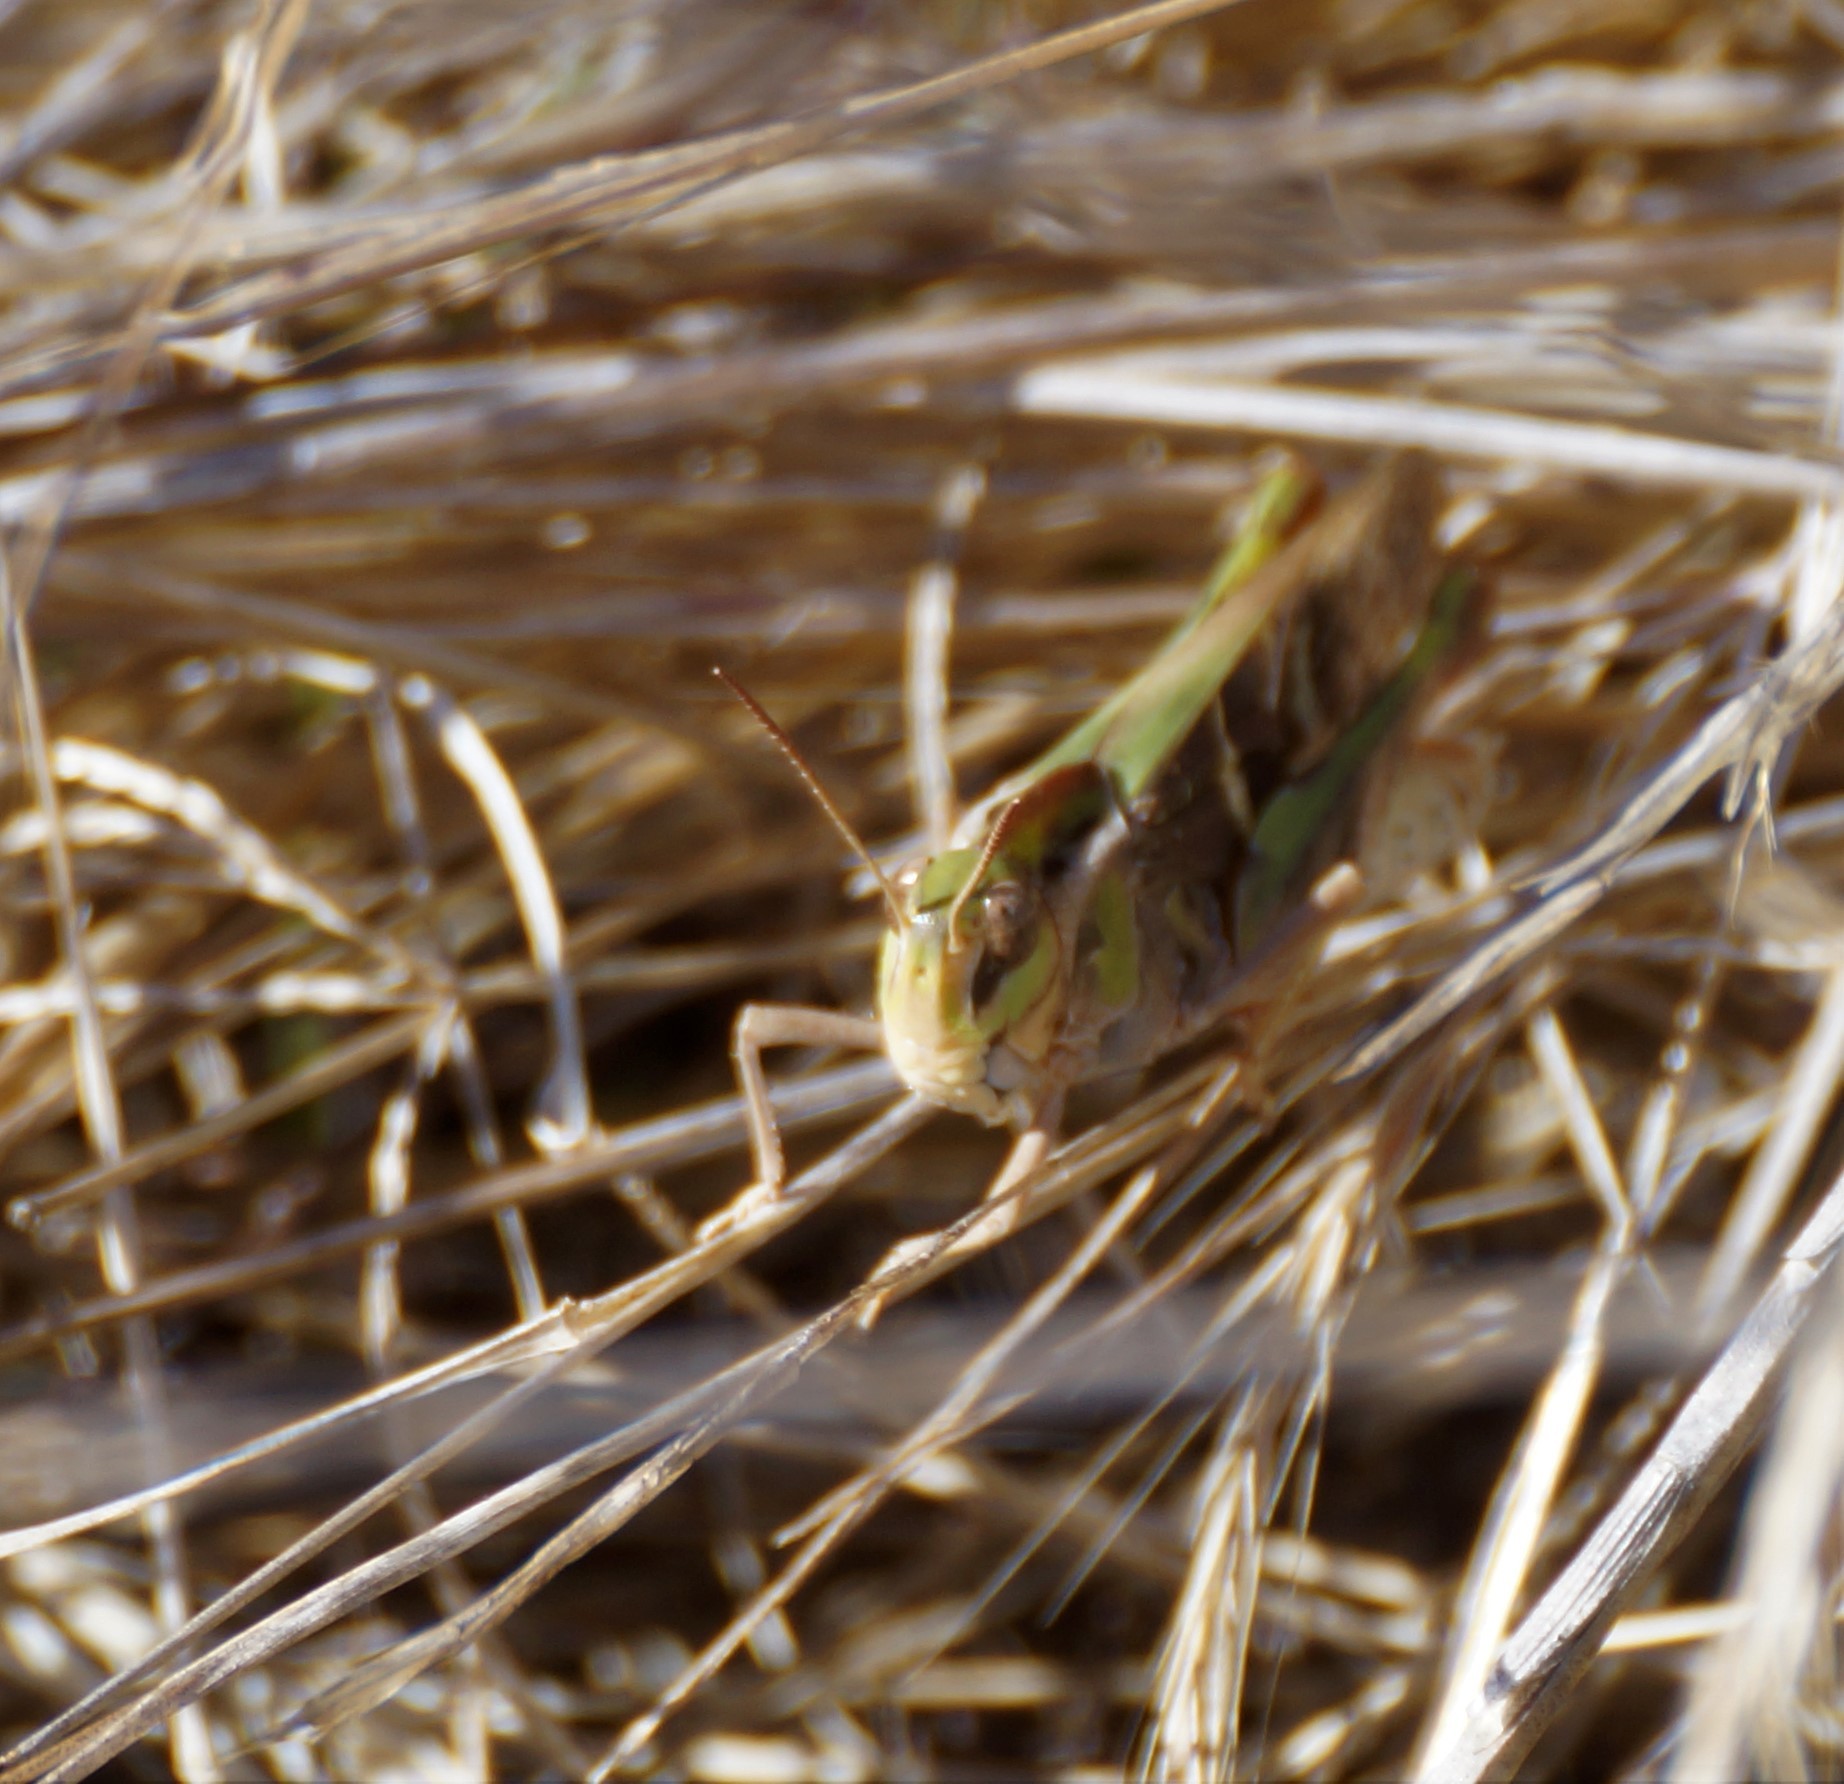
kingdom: Animalia
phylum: Arthropoda
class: Insecta
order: Orthoptera
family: Acrididae
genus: Gastrimargus
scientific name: Gastrimargus musicus
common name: Yellow-winged locust
